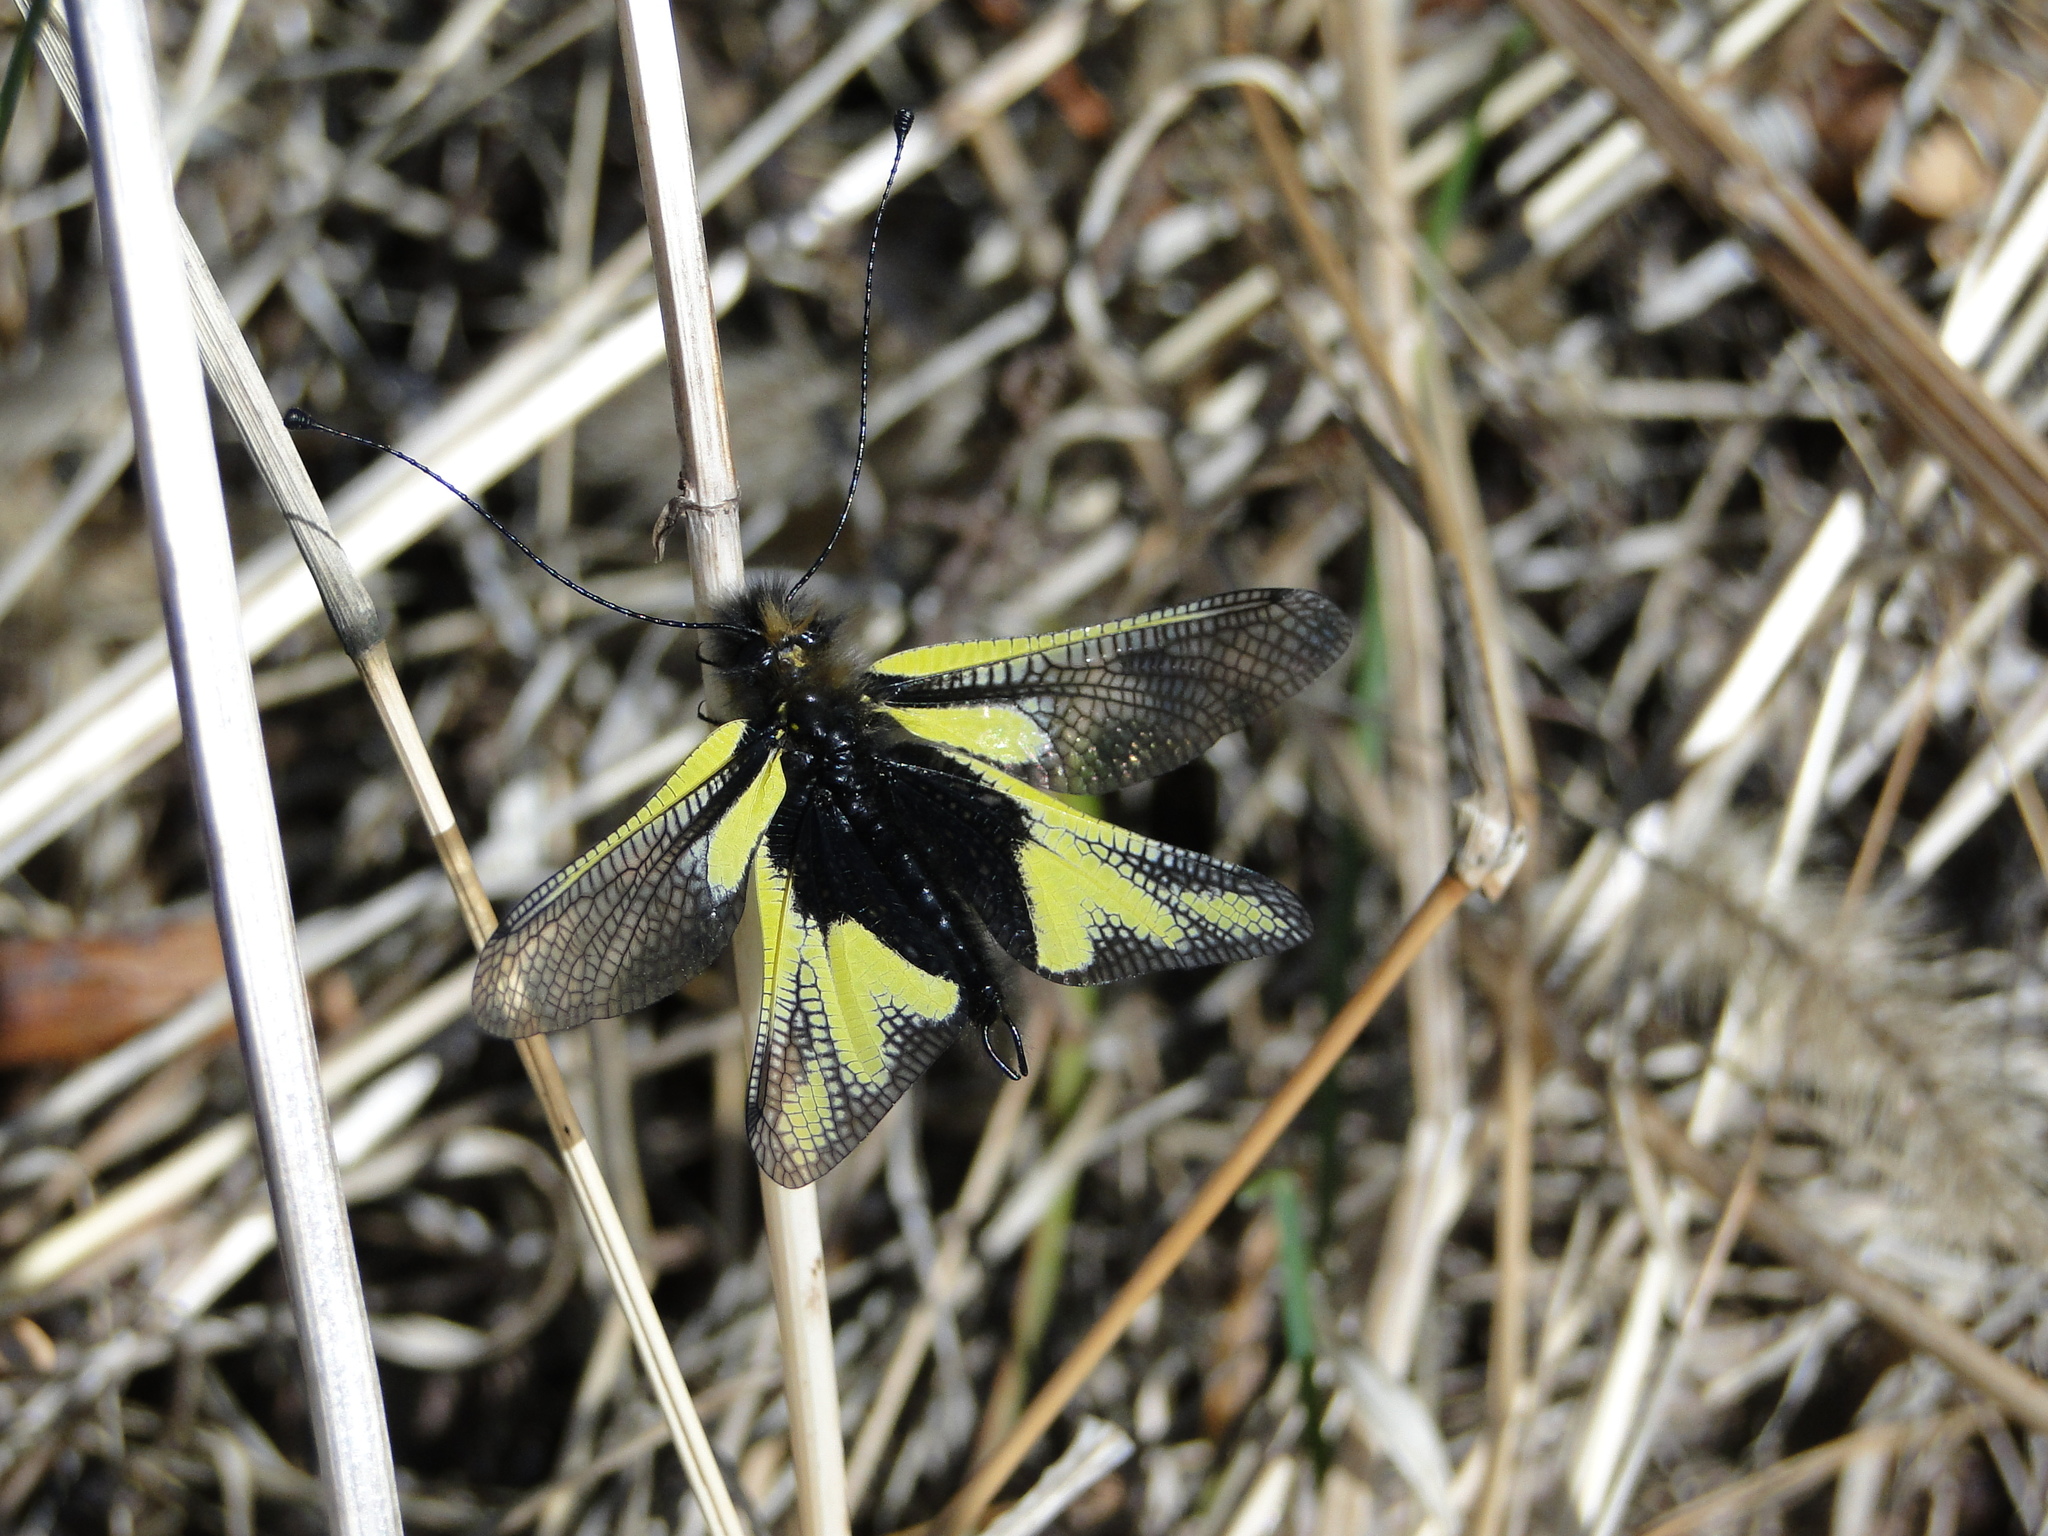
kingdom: Animalia
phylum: Arthropoda
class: Insecta
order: Neuroptera
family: Ascalaphidae
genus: Libelloides
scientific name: Libelloides coccajus
